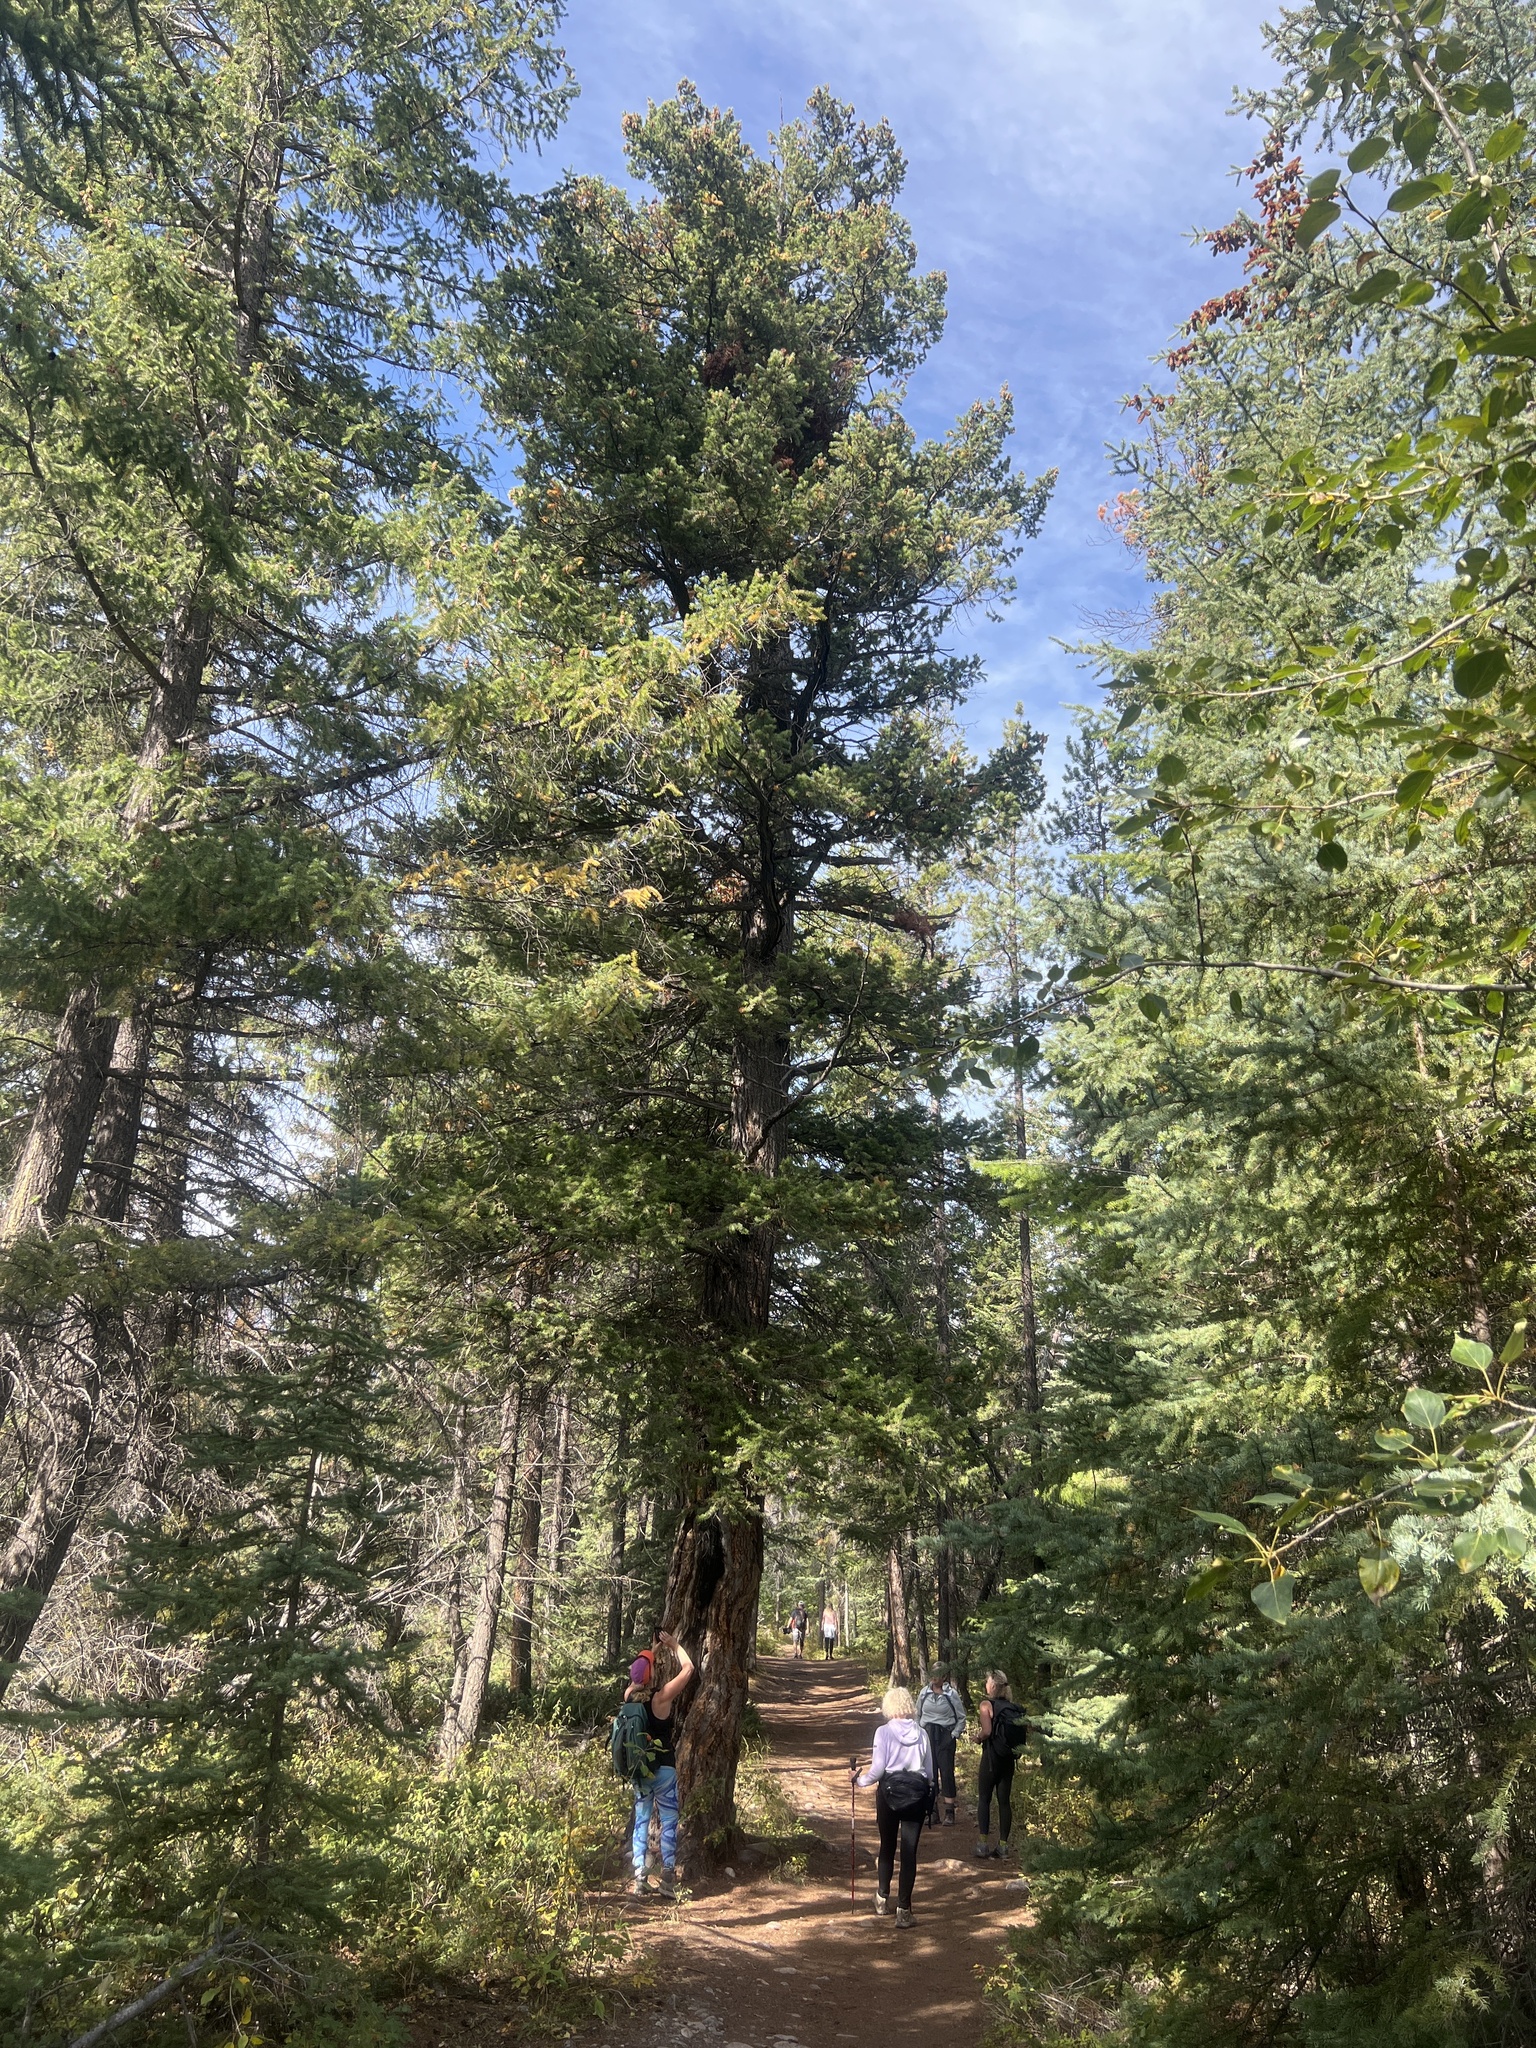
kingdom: Plantae
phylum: Tracheophyta
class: Pinopsida
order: Pinales
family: Pinaceae
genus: Pseudotsuga
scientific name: Pseudotsuga menziesii
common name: Douglas fir
